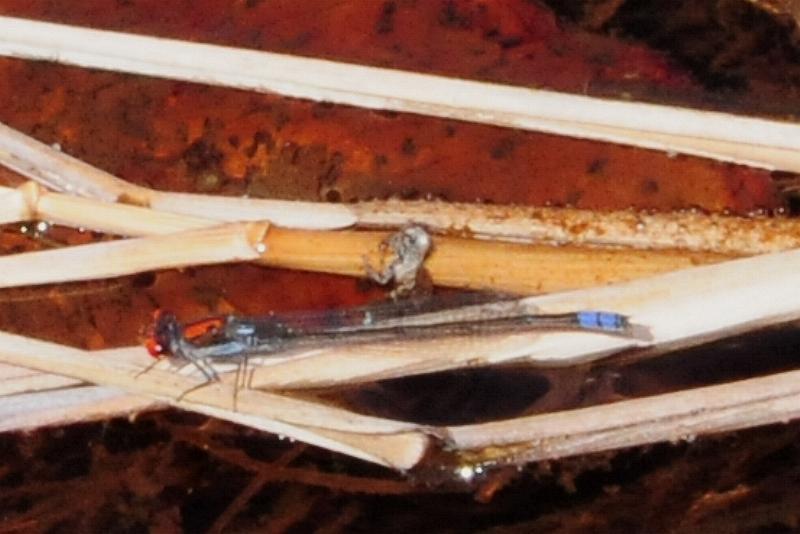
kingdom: Animalia
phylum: Arthropoda
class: Insecta
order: Odonata
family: Coenagrionidae
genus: Pseudagrion
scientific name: Pseudagrion massaicum
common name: Masai sprite
